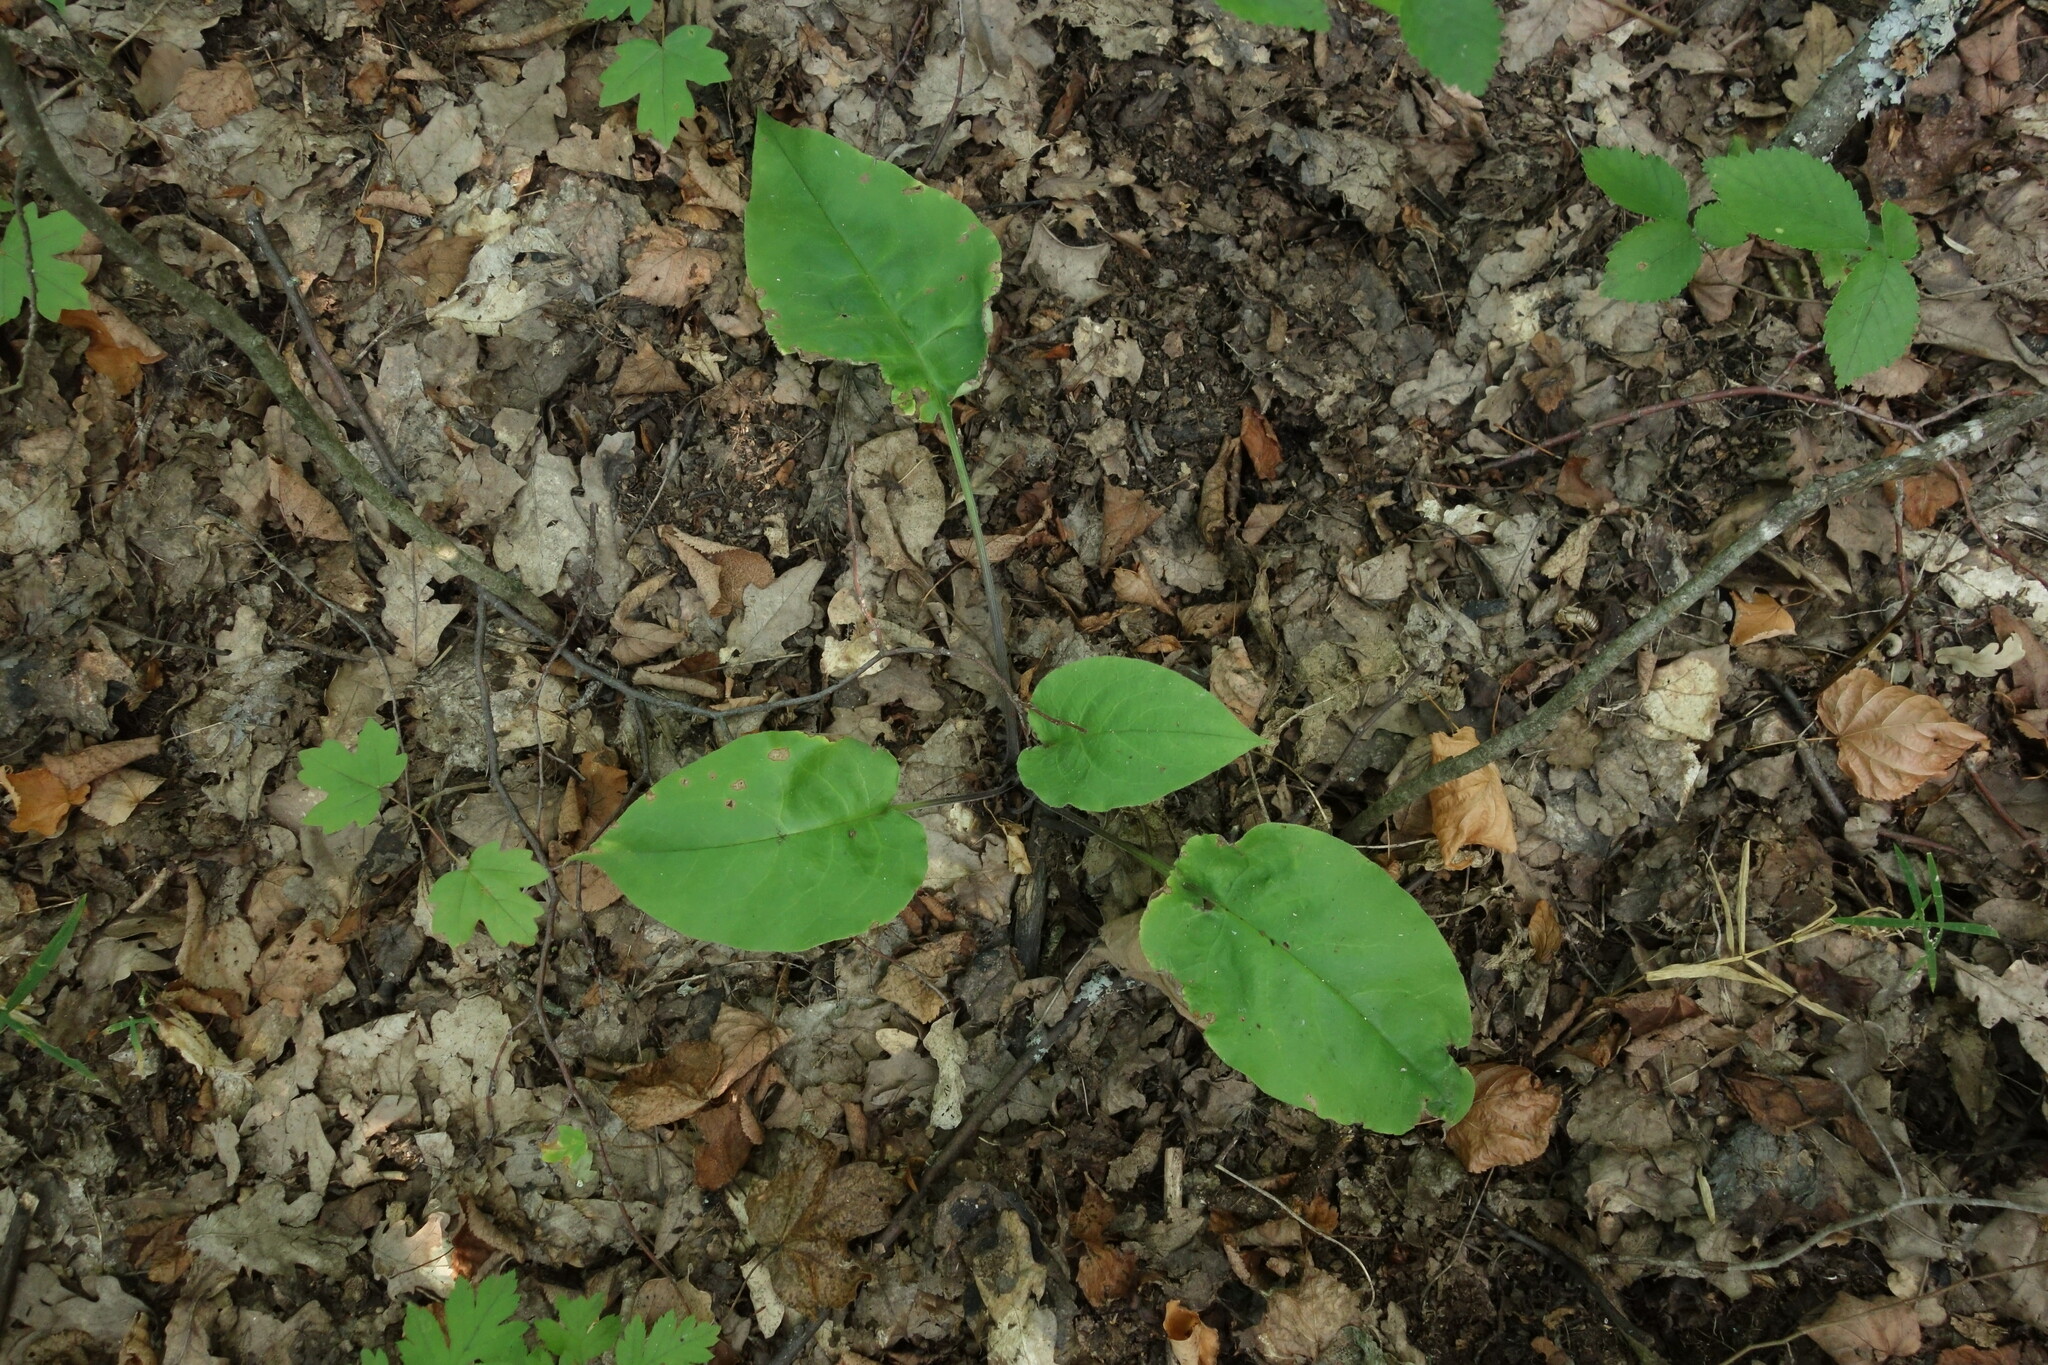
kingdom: Plantae
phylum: Tracheophyta
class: Magnoliopsida
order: Boraginales
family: Boraginaceae
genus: Pulmonaria
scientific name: Pulmonaria obscura
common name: Suffolk lungwort
